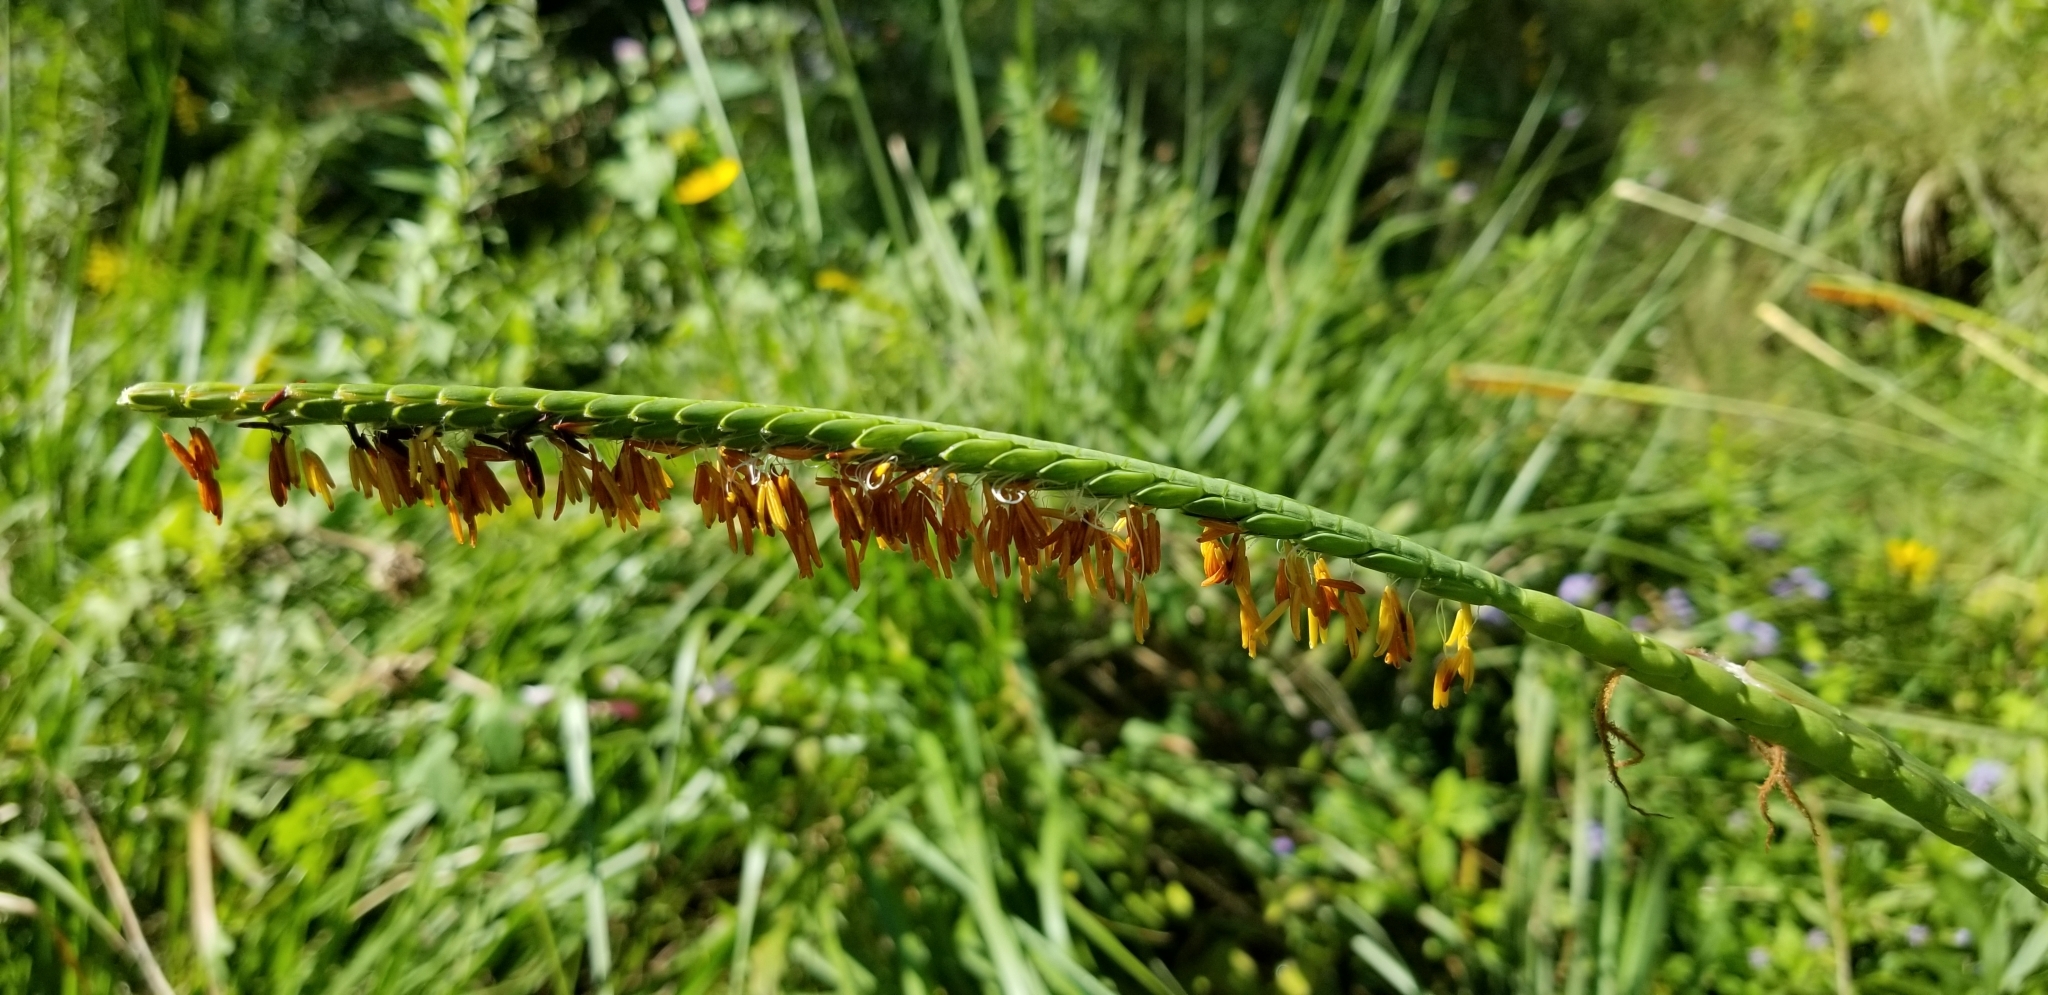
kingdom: Plantae
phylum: Tracheophyta
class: Liliopsida
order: Poales
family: Poaceae
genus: Tripsacum
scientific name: Tripsacum dactyloides
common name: Buffalo-grass
